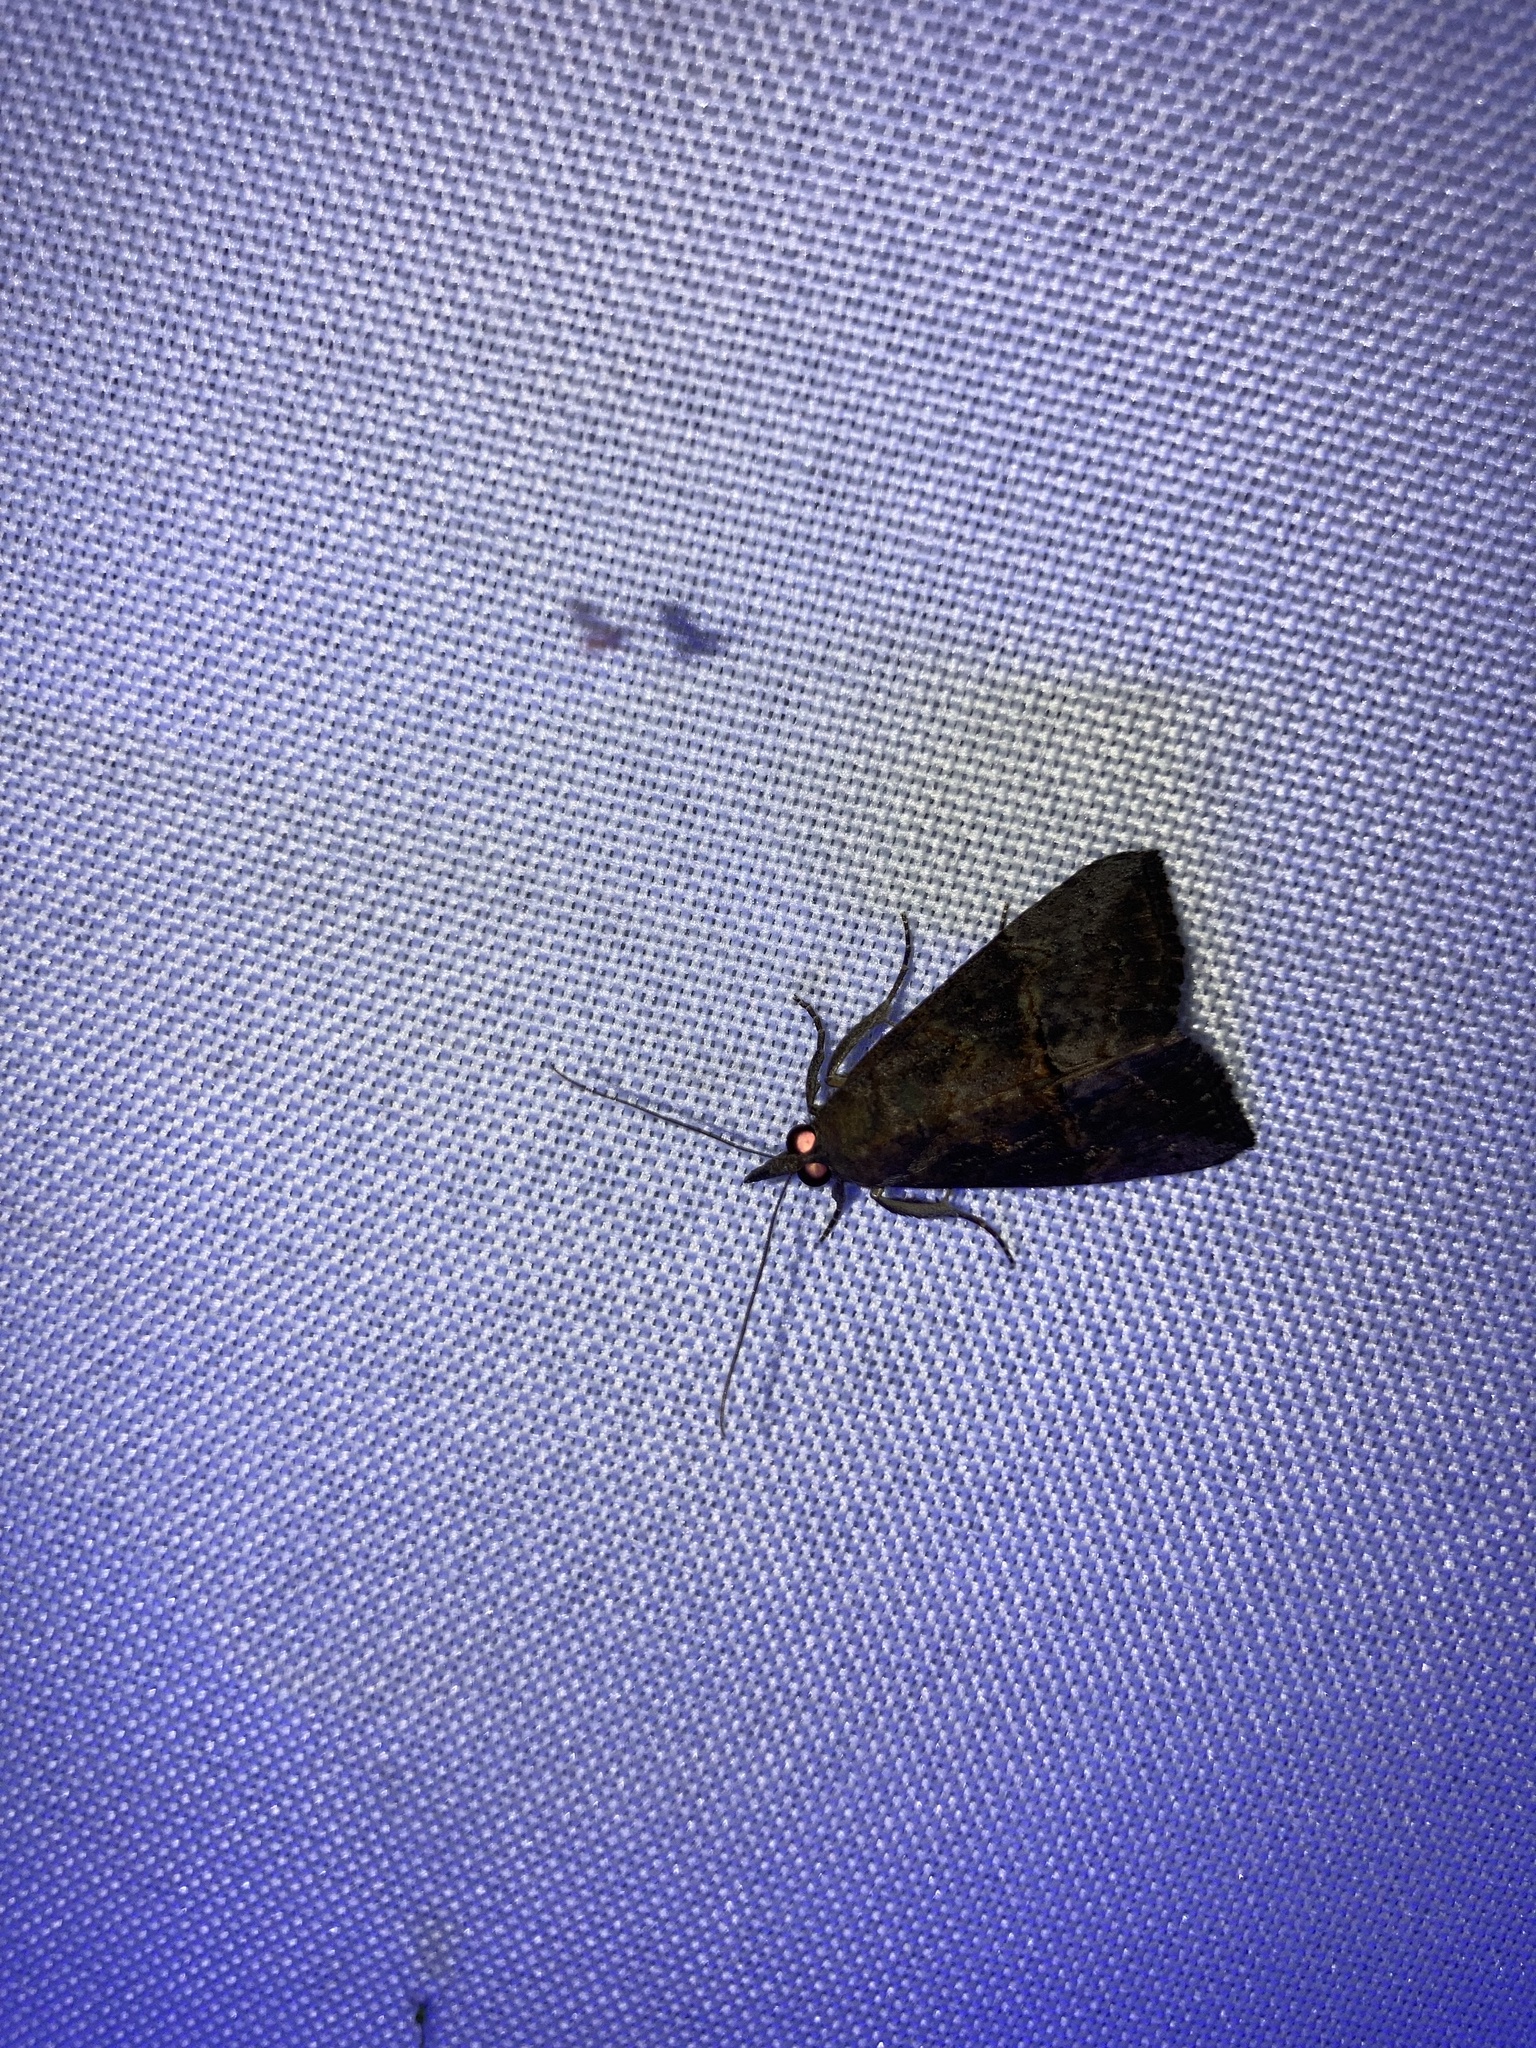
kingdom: Animalia
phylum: Arthropoda
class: Insecta
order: Lepidoptera
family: Erebidae
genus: Hypena
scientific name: Hypena scabra
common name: Green cloverworm
